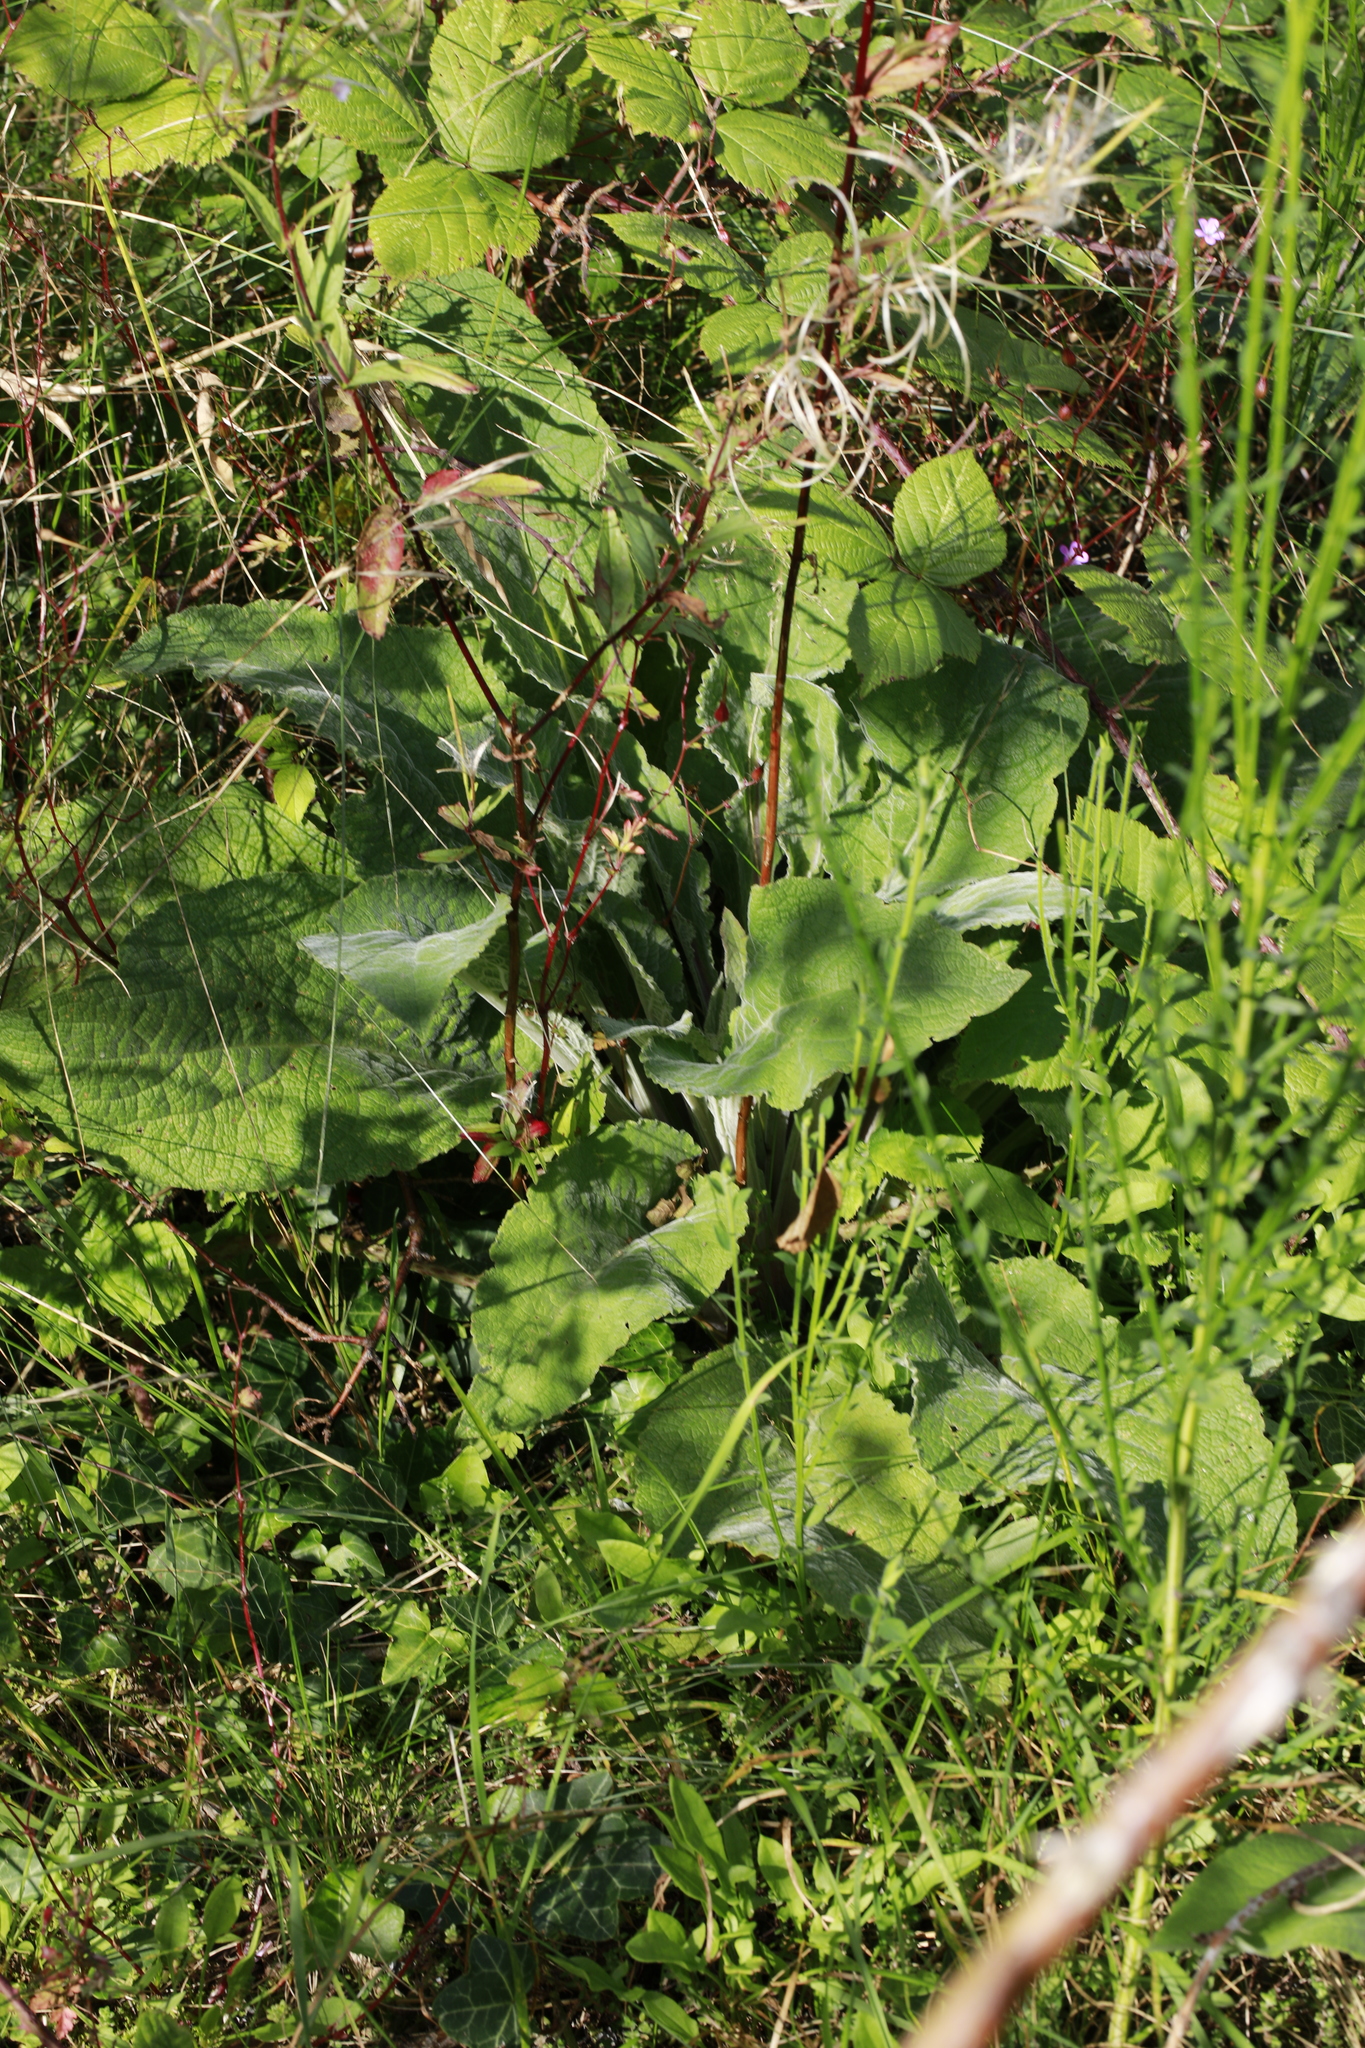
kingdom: Plantae
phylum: Tracheophyta
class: Magnoliopsida
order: Lamiales
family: Plantaginaceae
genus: Digitalis
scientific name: Digitalis purpurea
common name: Foxglove
